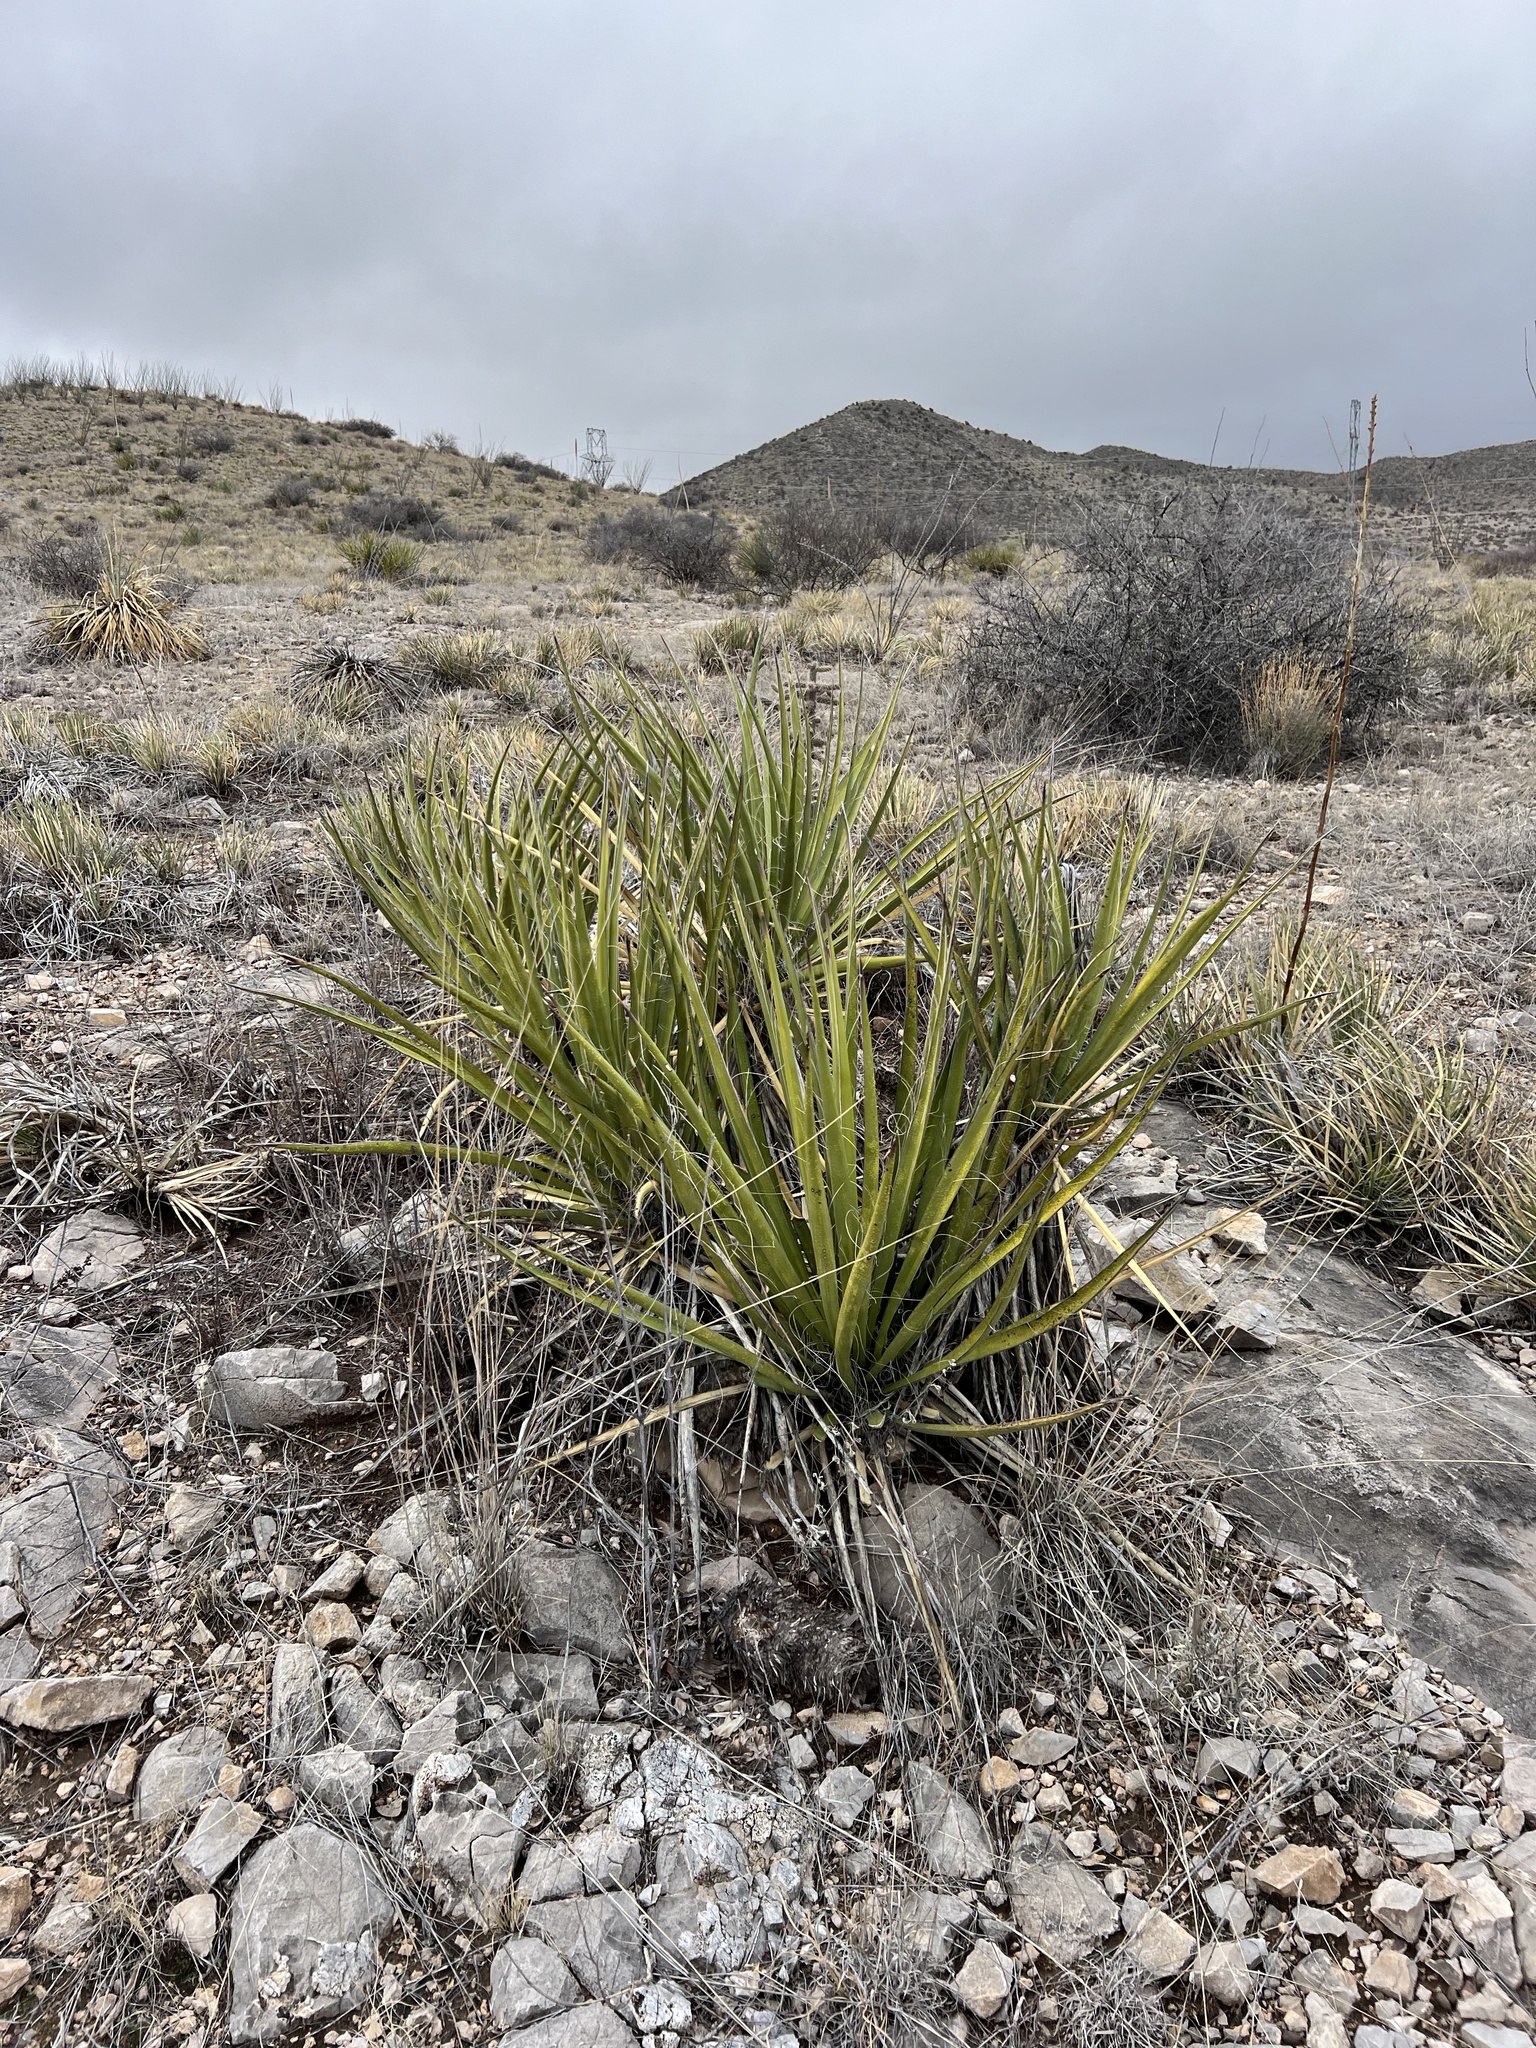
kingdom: Plantae
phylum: Tracheophyta
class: Liliopsida
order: Asparagales
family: Asparagaceae
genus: Yucca
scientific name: Yucca baccata
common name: Banana yucca
